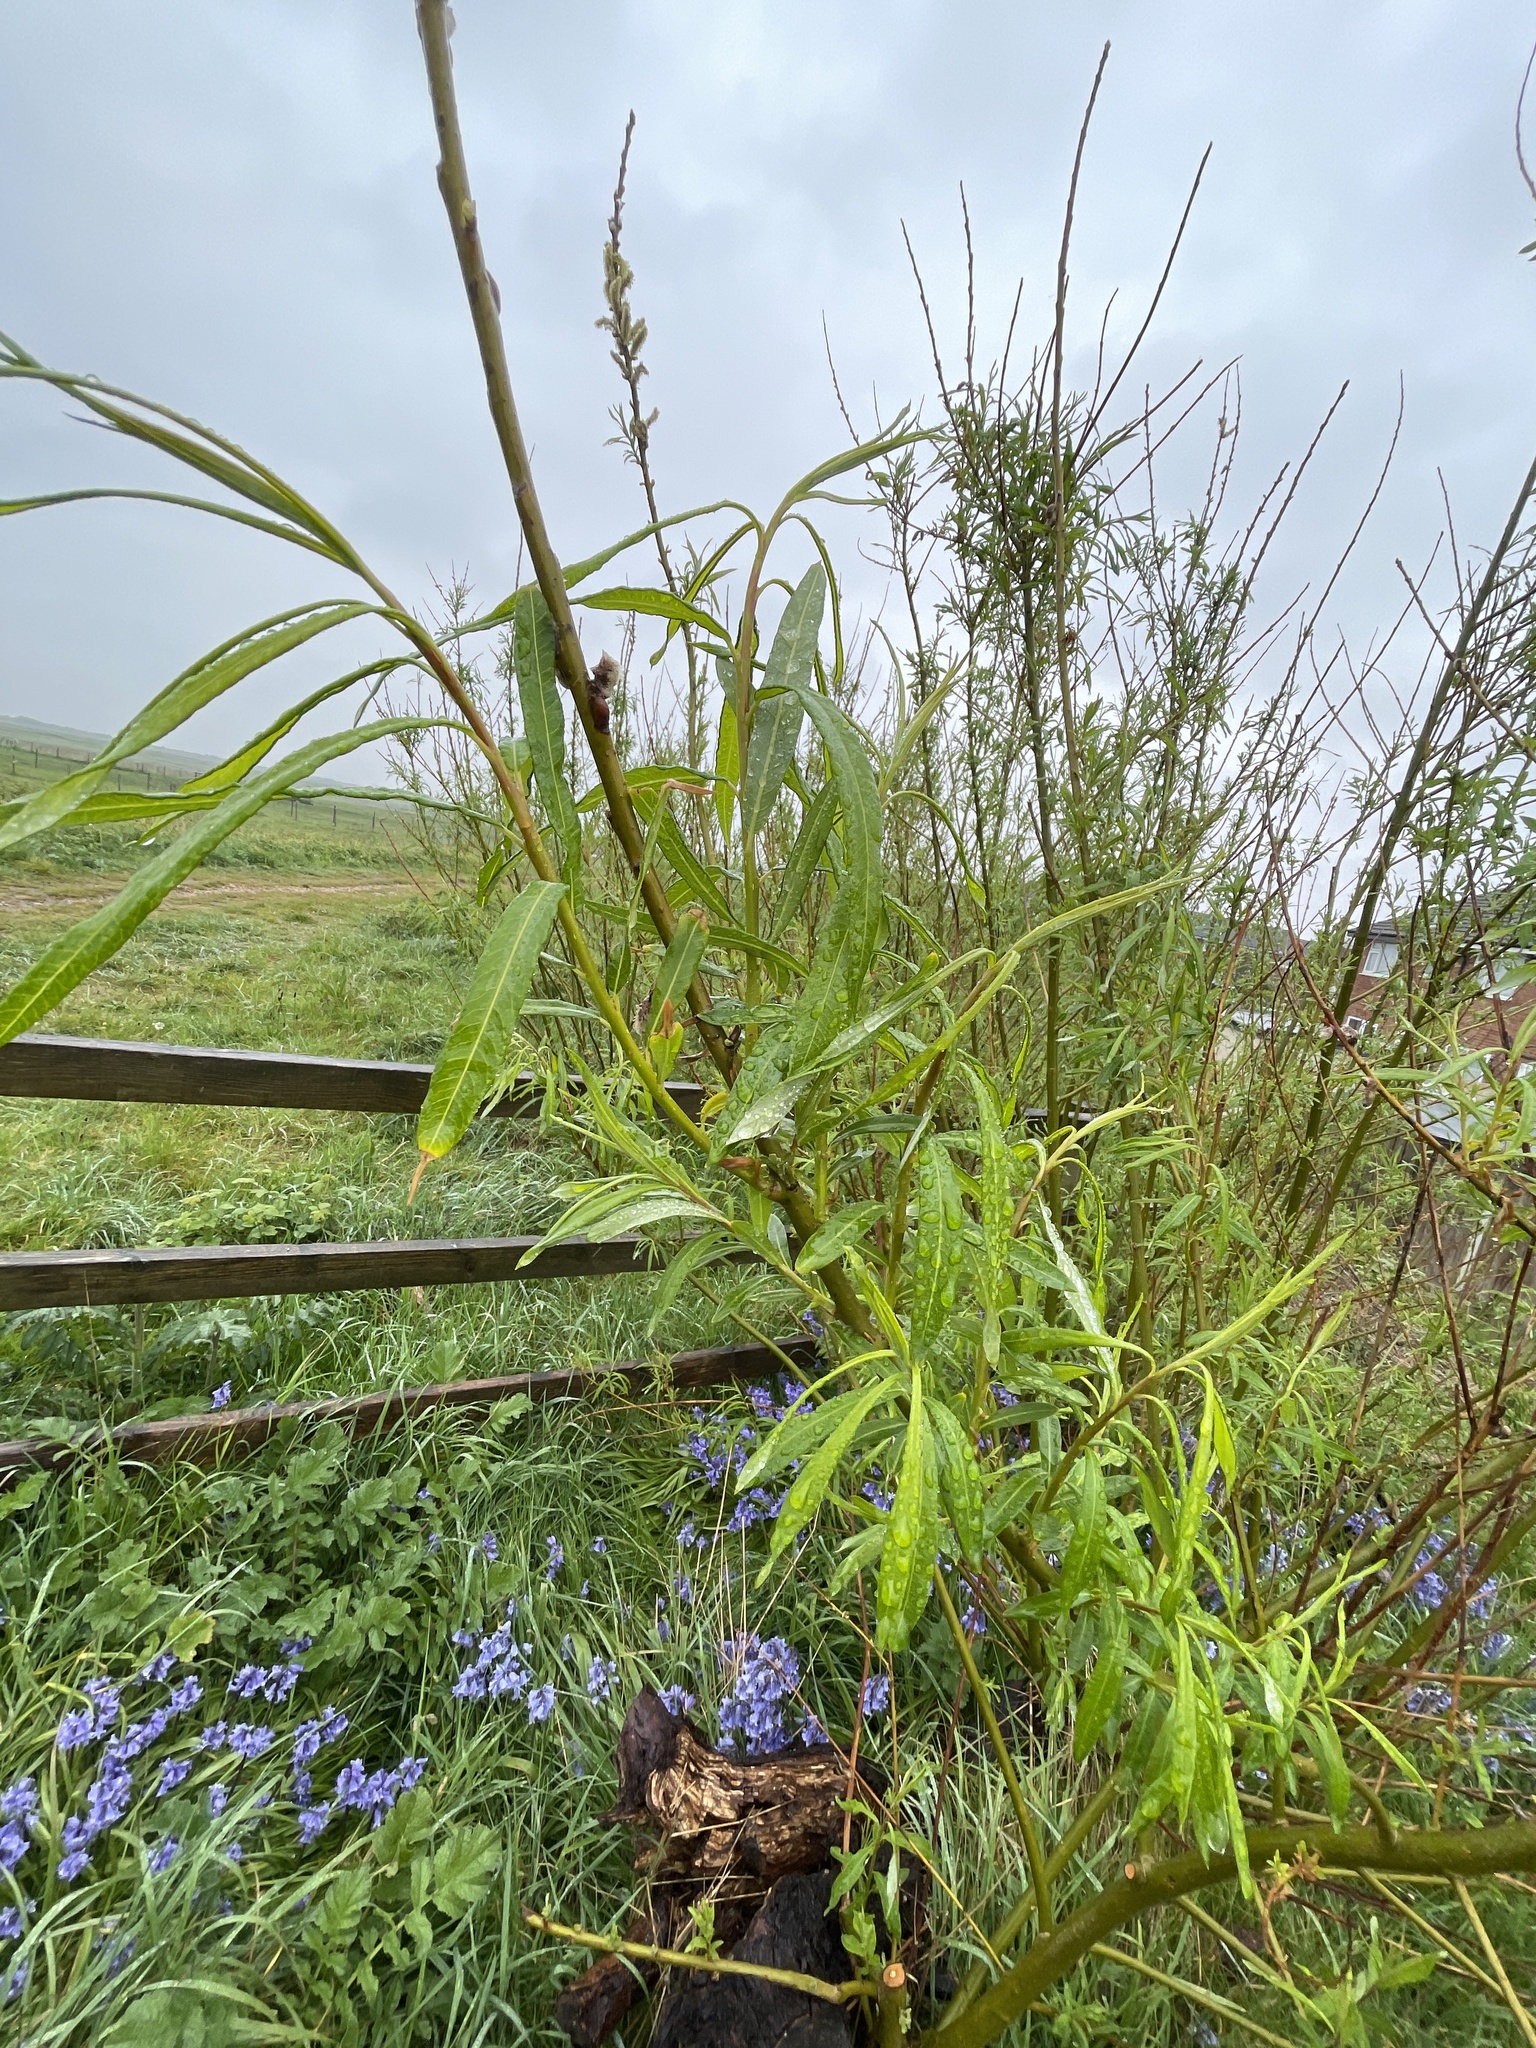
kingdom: Plantae
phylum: Tracheophyta
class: Magnoliopsida
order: Malpighiales
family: Salicaceae
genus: Salix
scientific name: Salix viminalis
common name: Osier
